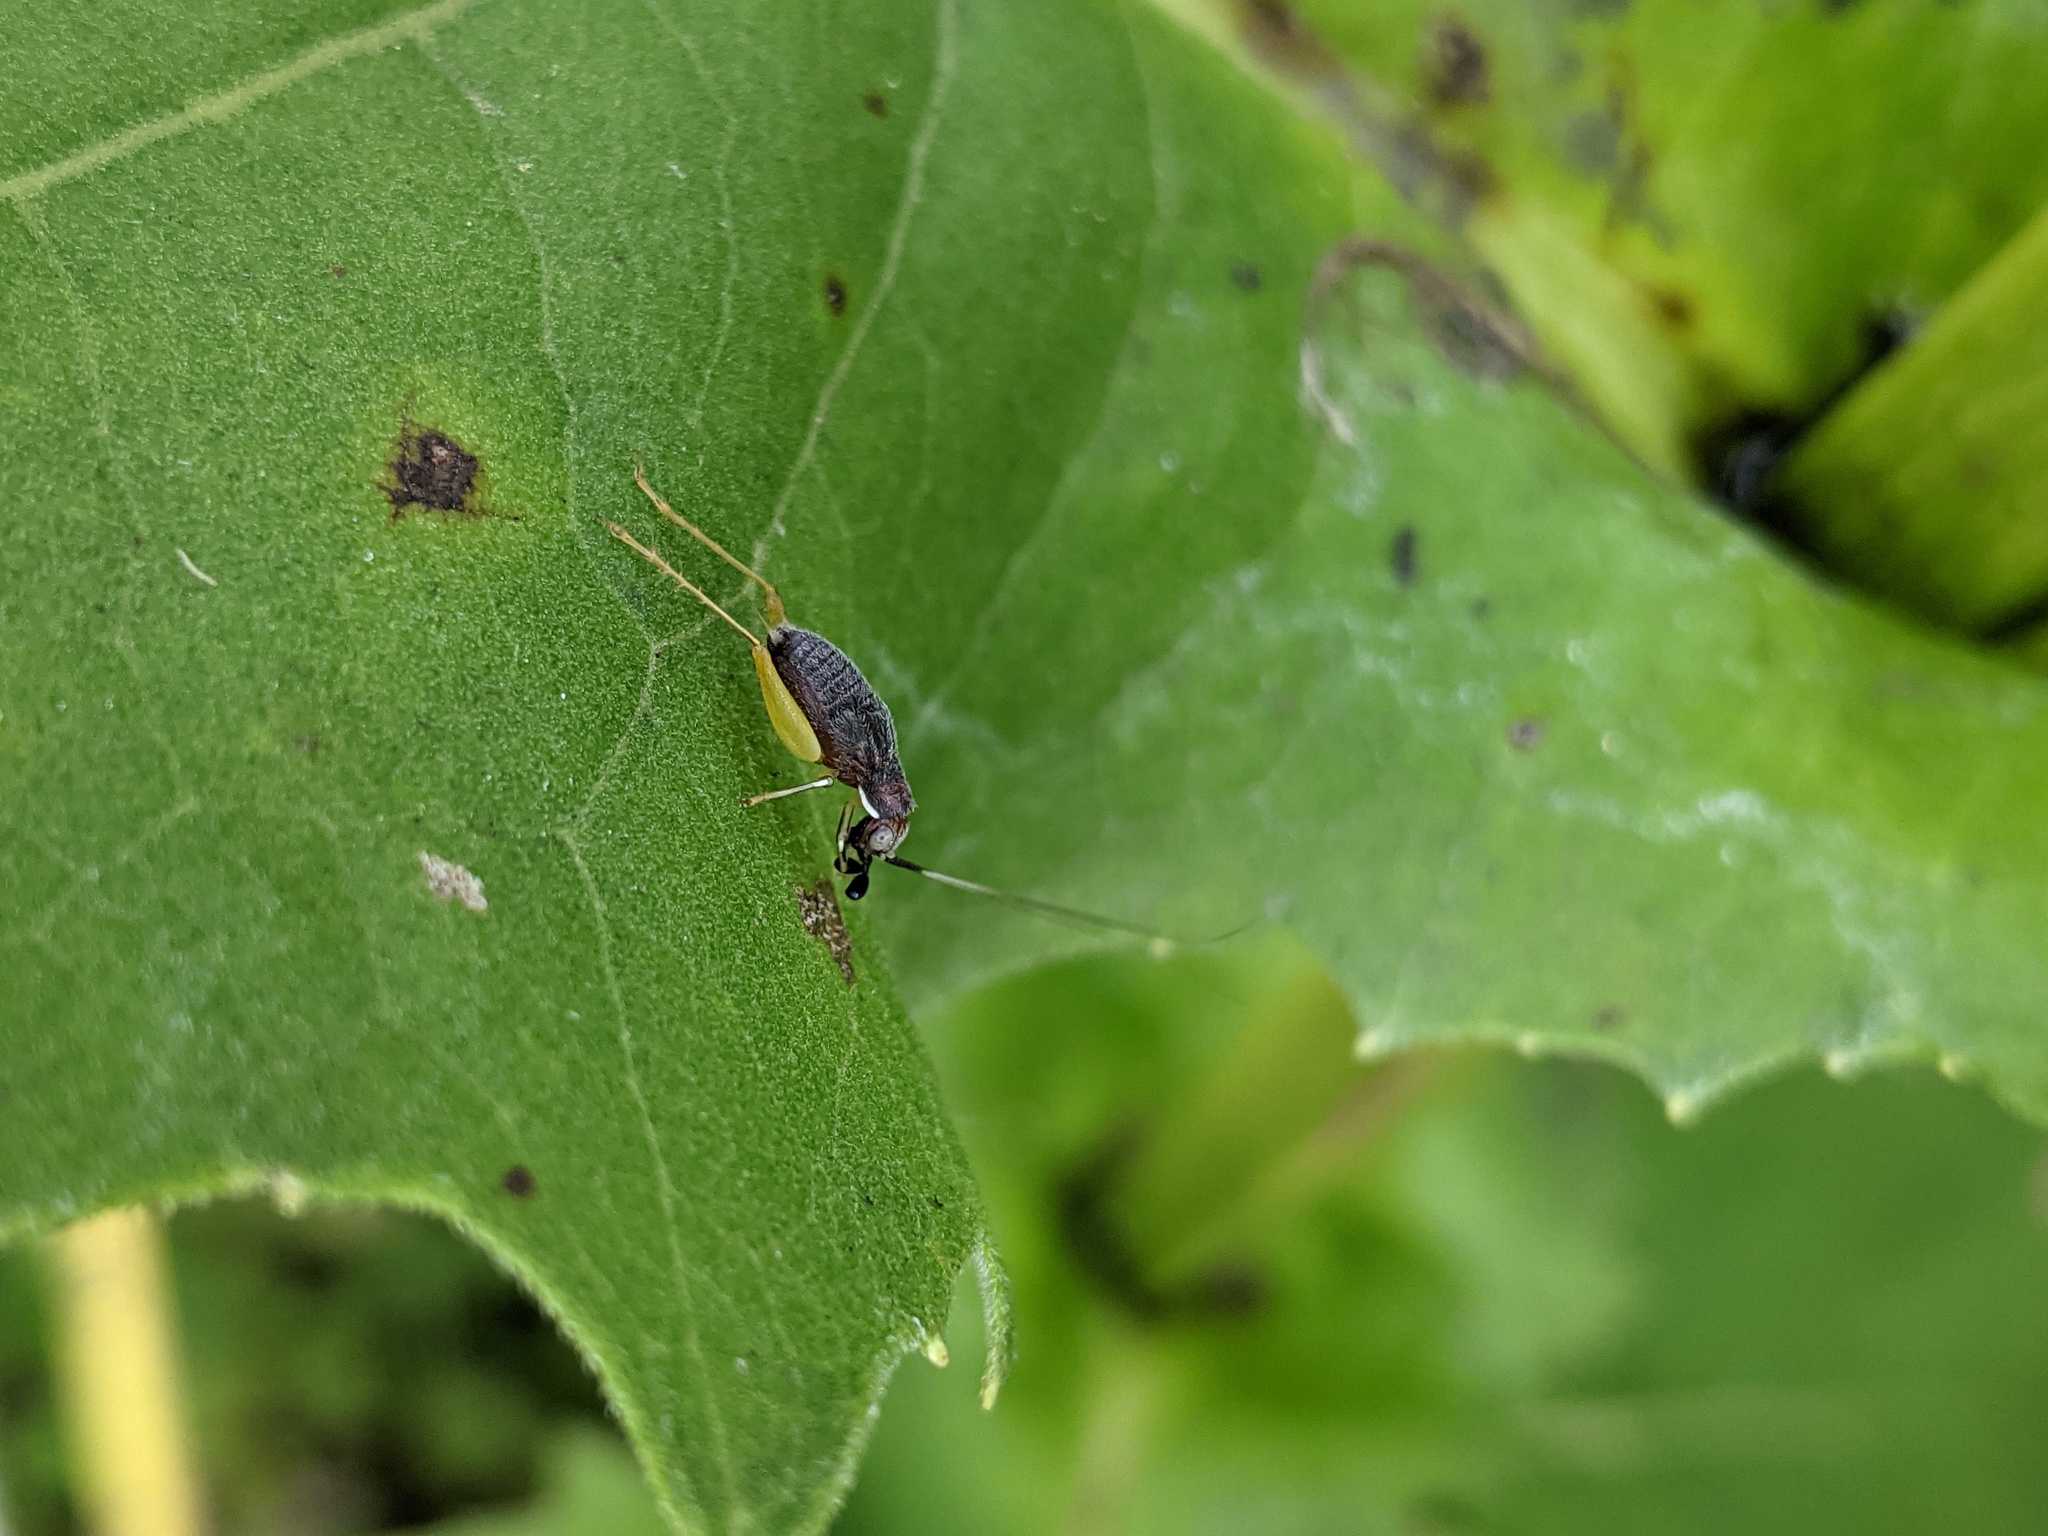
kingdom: Animalia
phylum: Arthropoda
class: Insecta
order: Orthoptera
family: Trigonidiidae
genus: Phyllopalpus
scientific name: Phyllopalpus pulchellus
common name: Handsome trig
